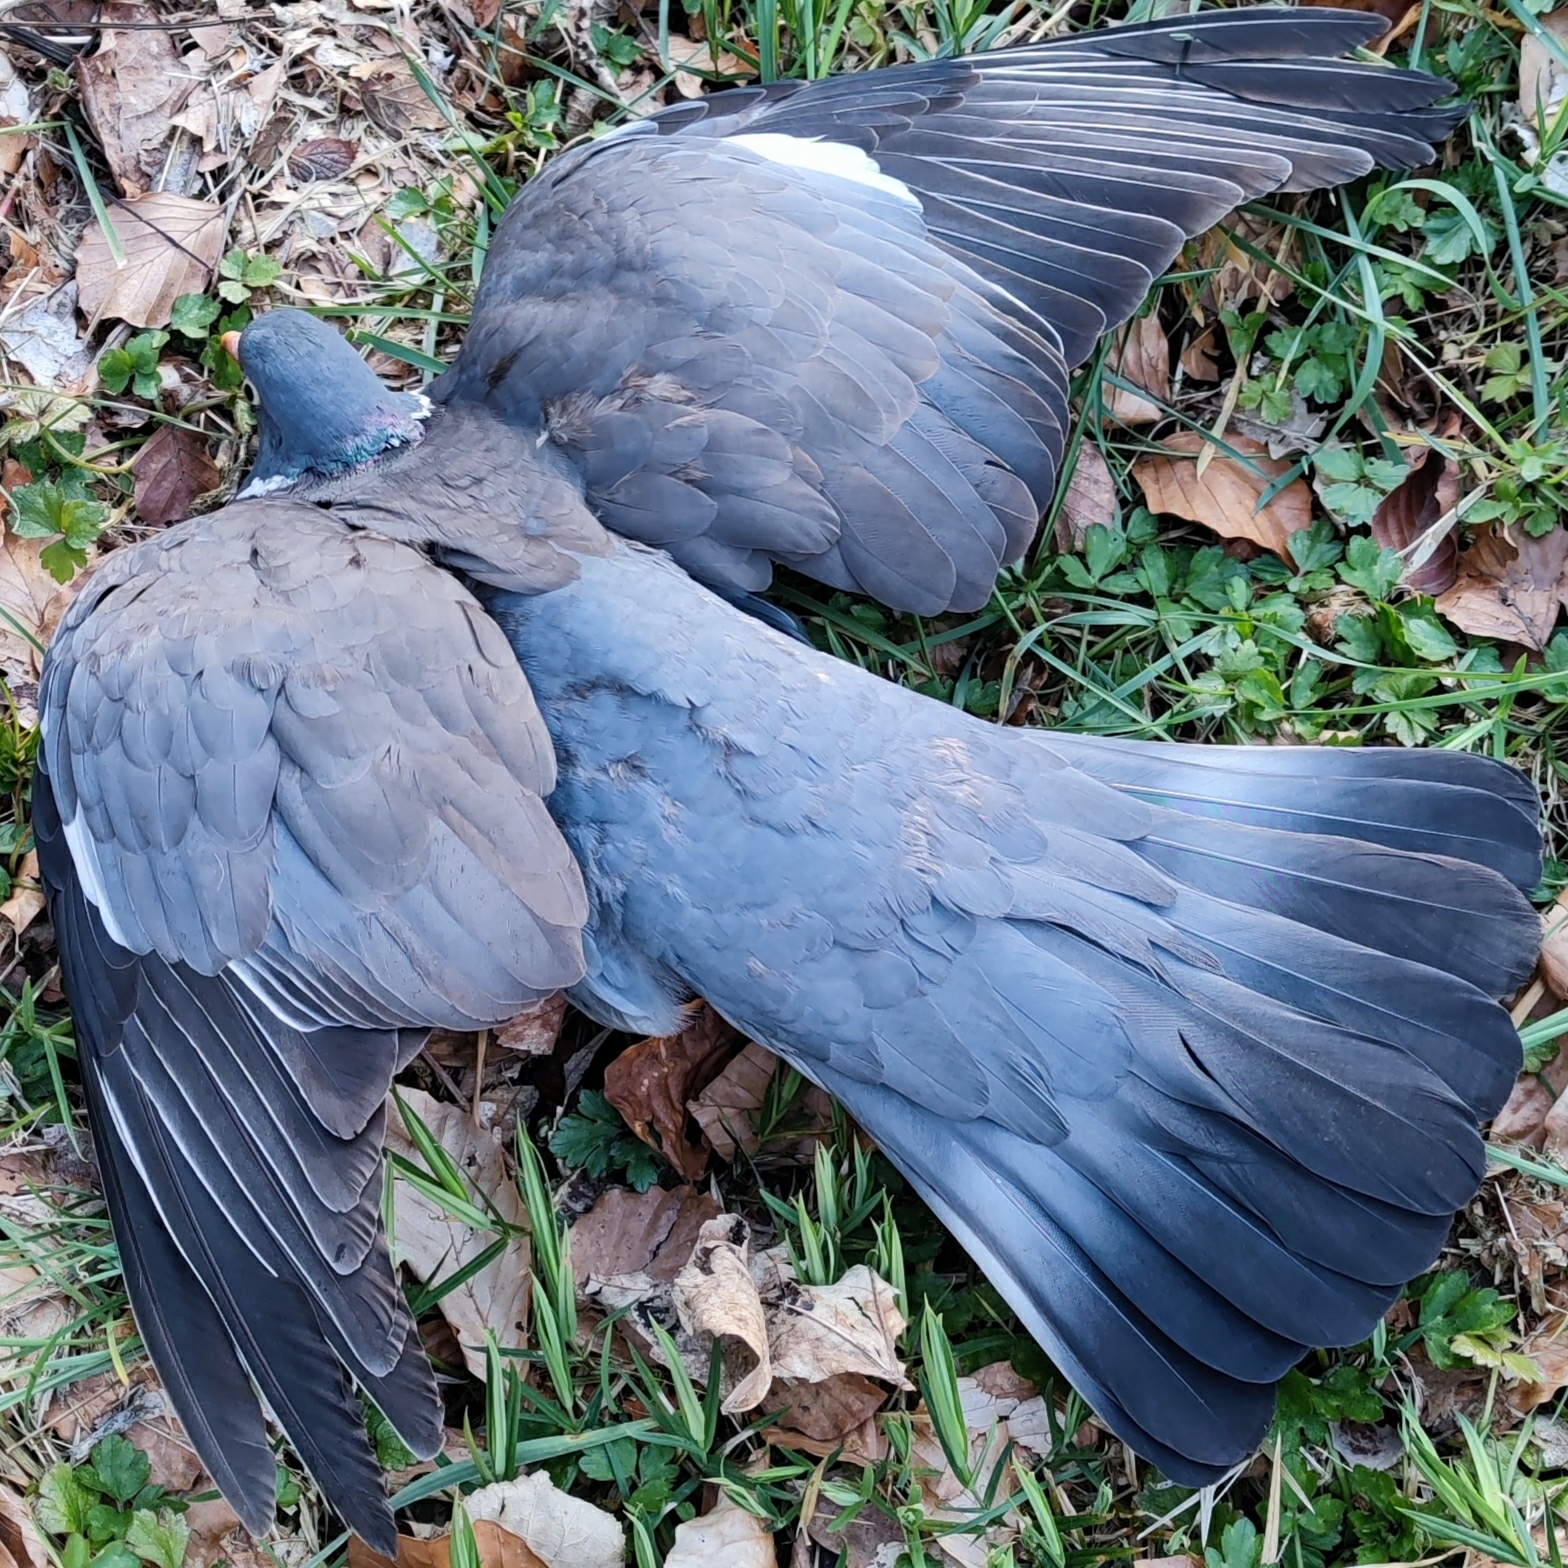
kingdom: Animalia
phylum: Chordata
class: Aves
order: Columbiformes
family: Columbidae
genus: Columba
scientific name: Columba palumbus
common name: Common wood pigeon
